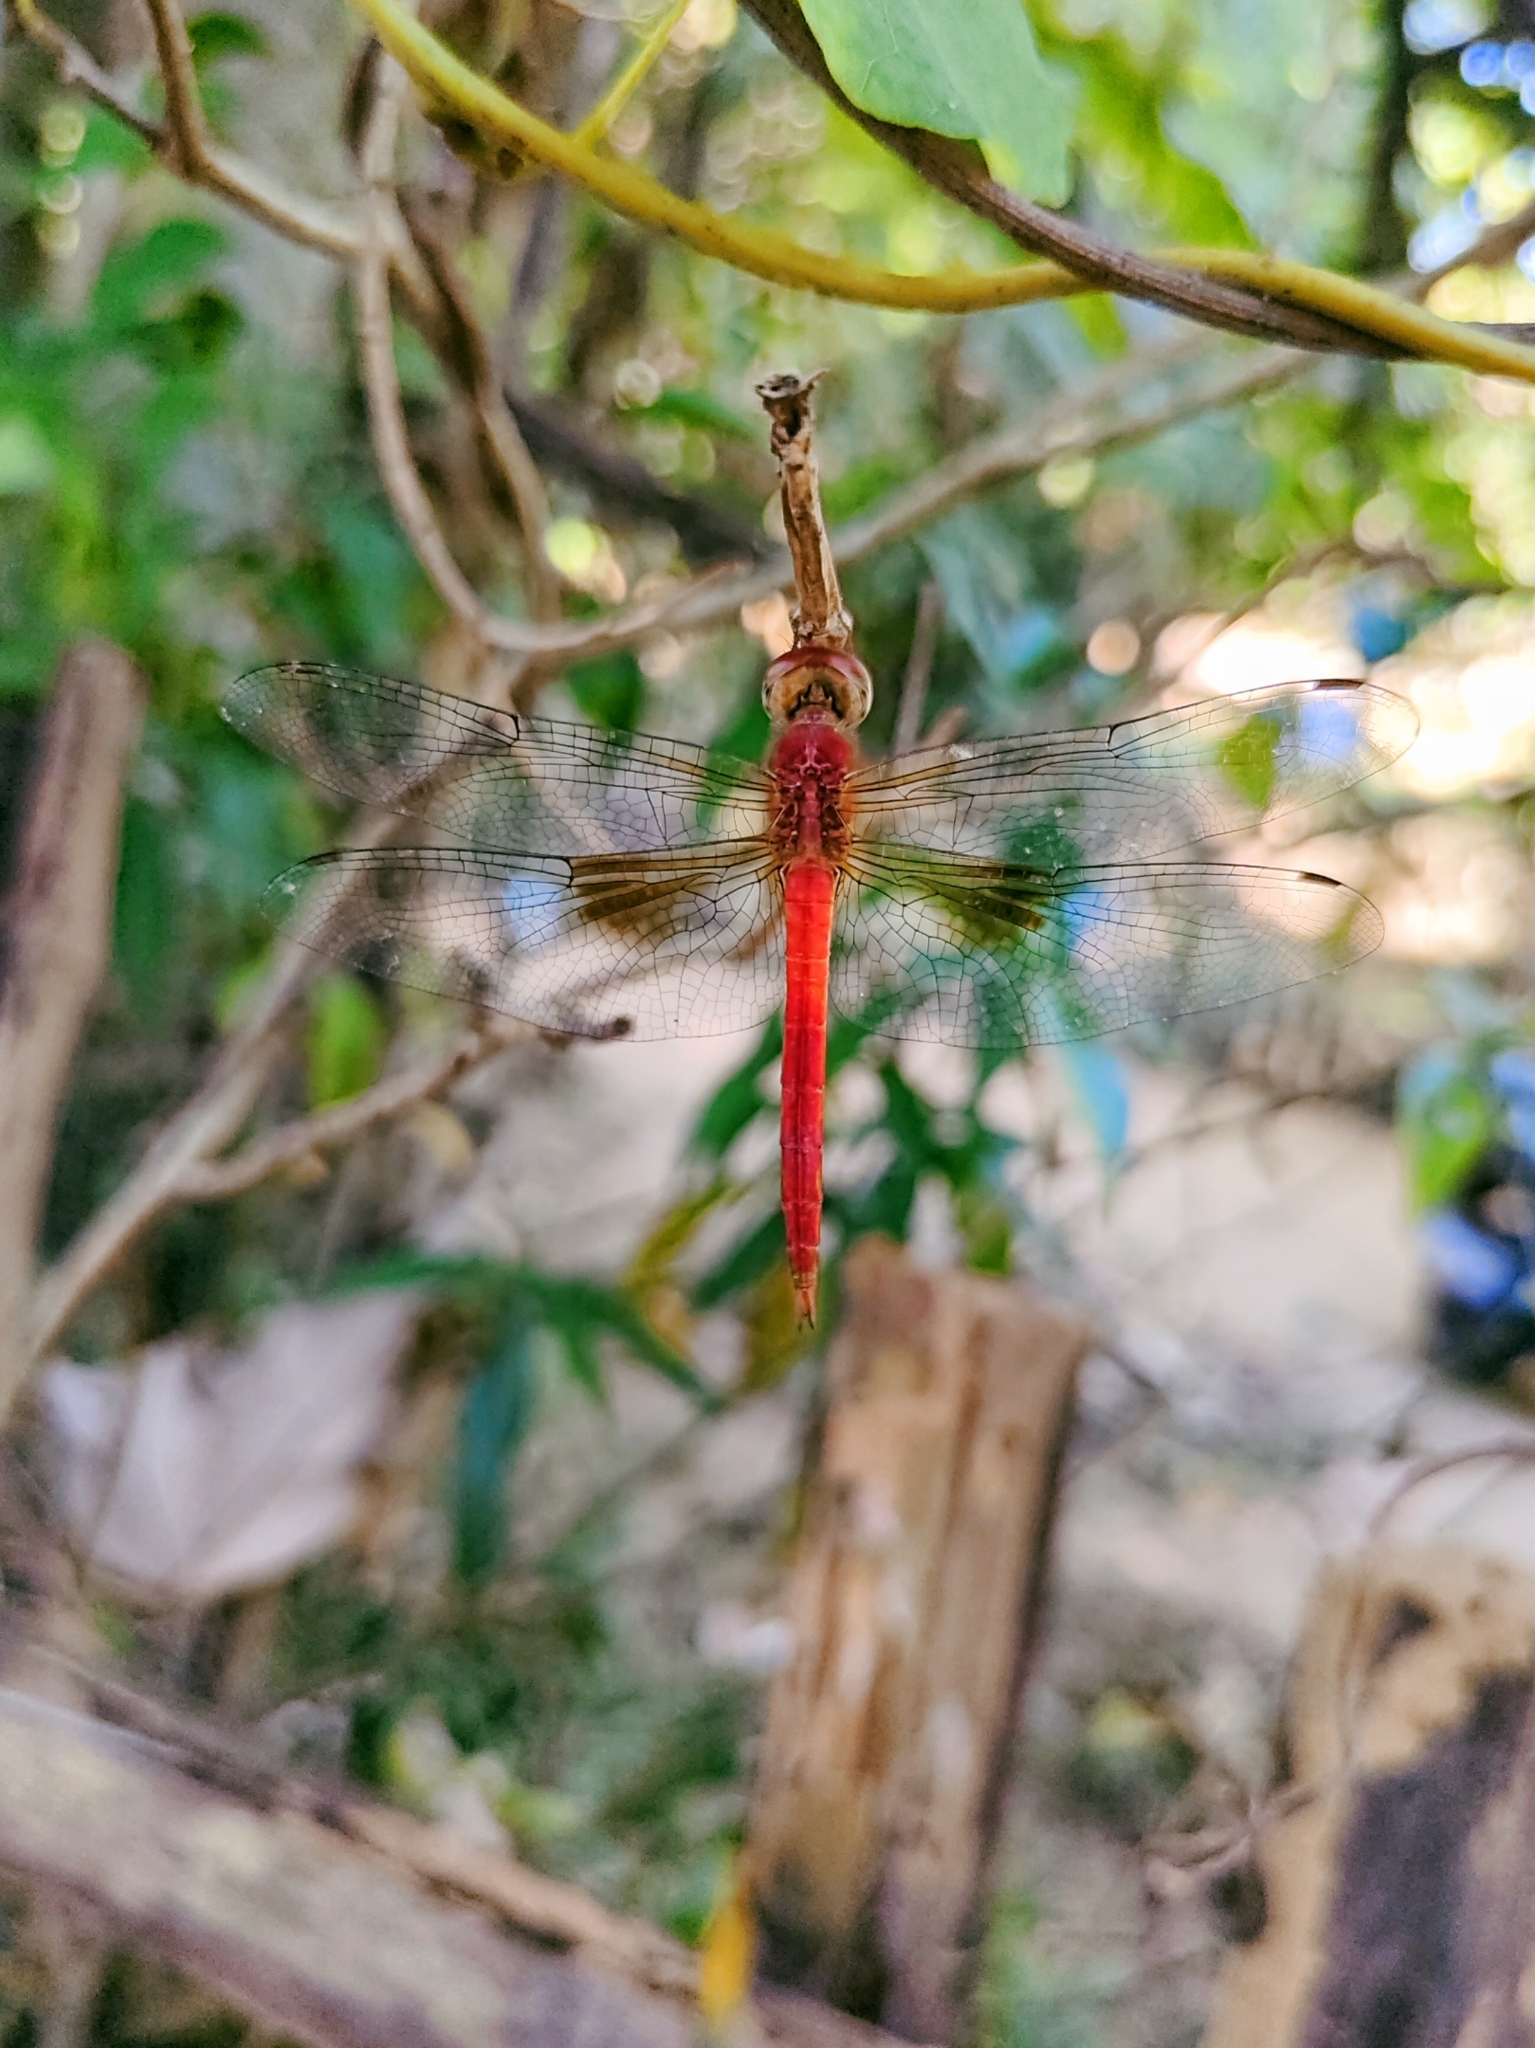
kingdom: Animalia
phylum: Arthropoda
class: Insecta
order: Odonata
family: Libellulidae
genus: Tholymis
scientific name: Tholymis tillarga
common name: Coral-tailed cloud wing
